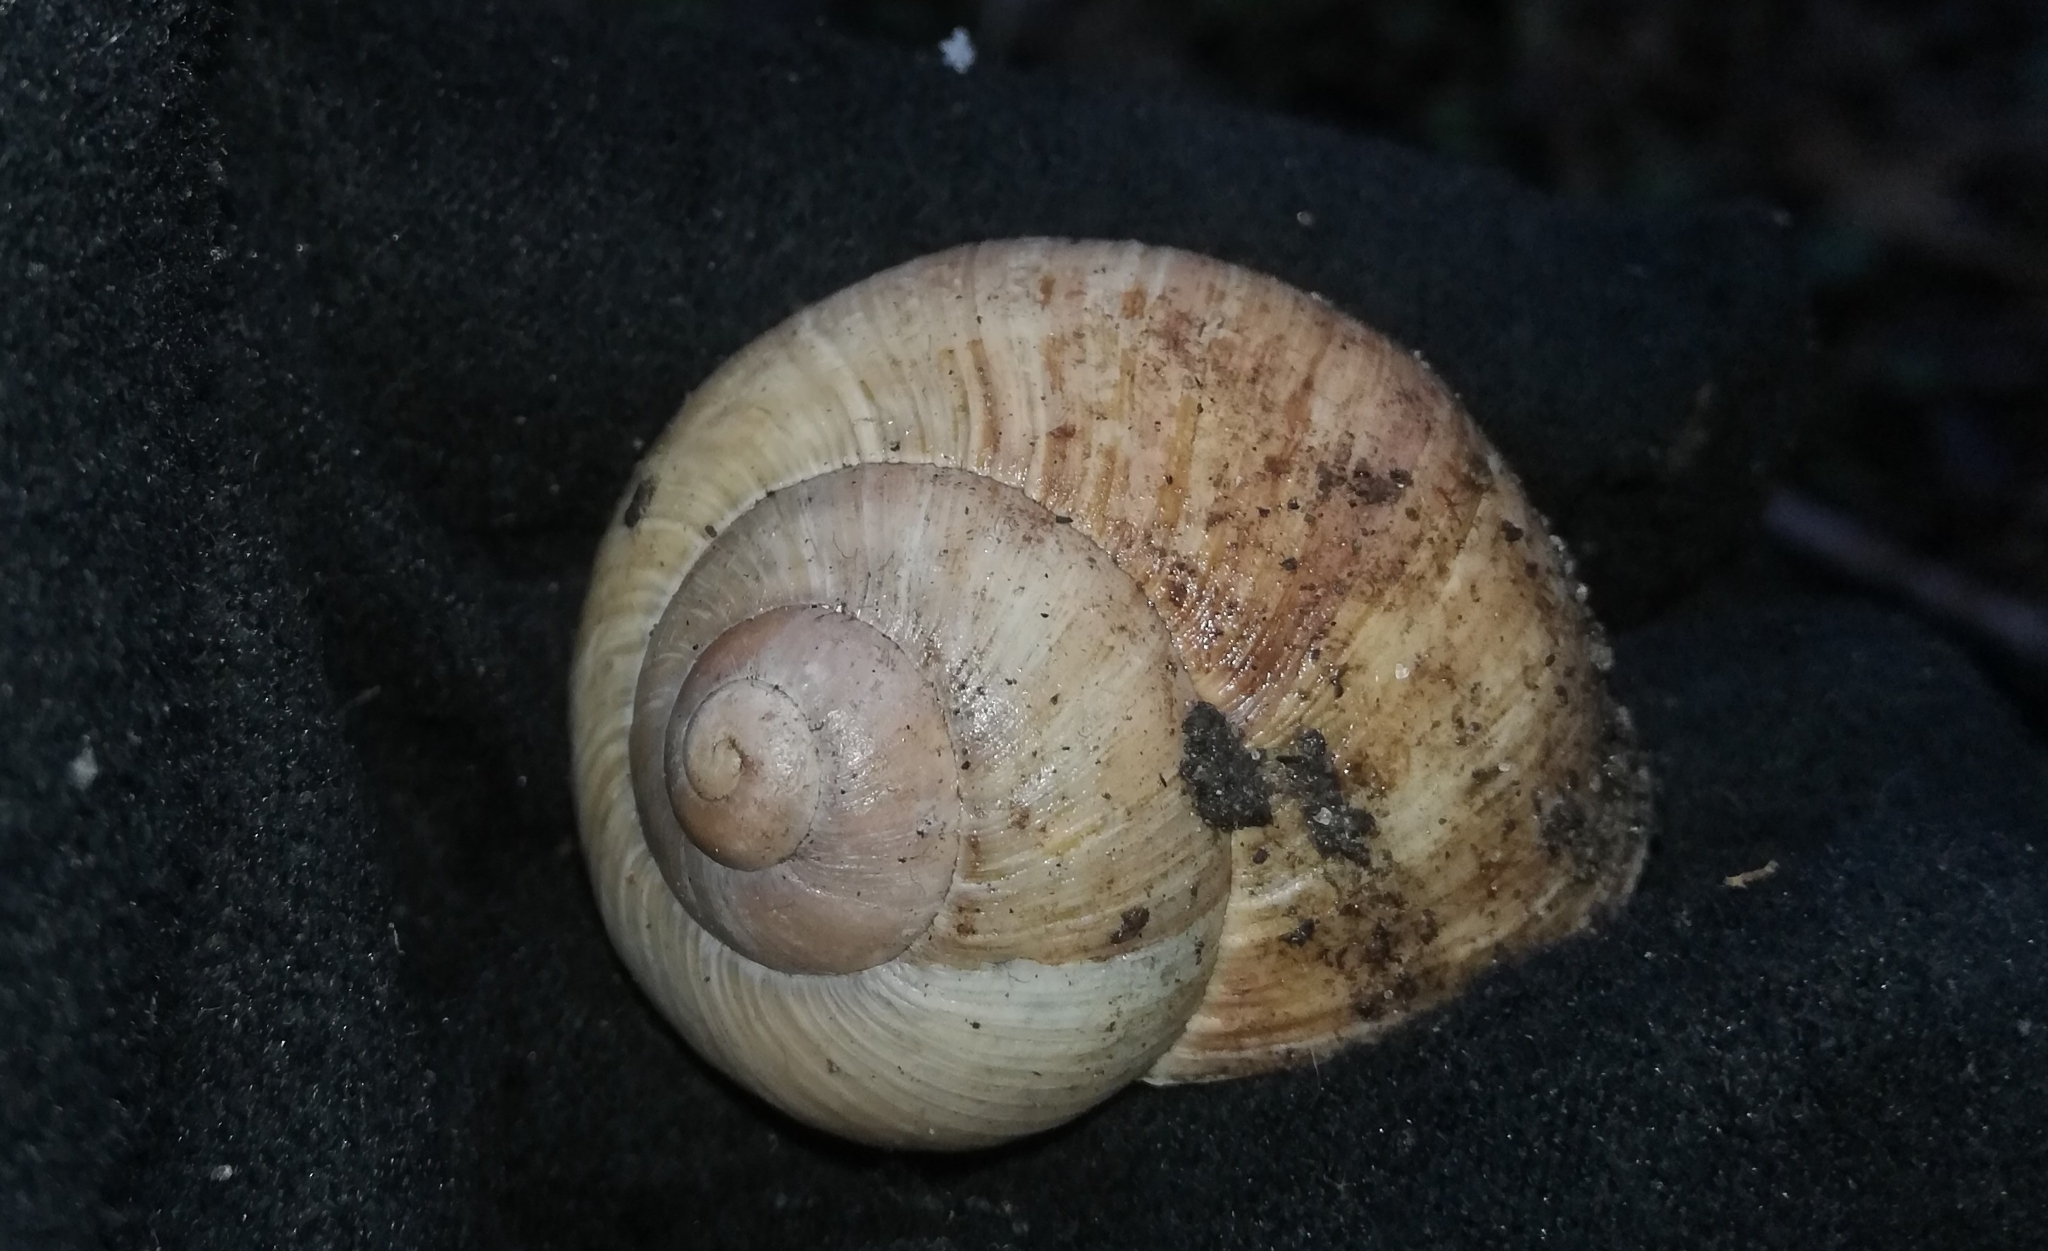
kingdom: Animalia
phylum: Mollusca
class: Gastropoda
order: Stylommatophora
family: Helicidae
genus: Helix
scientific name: Helix pomatia
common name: Roman snail
